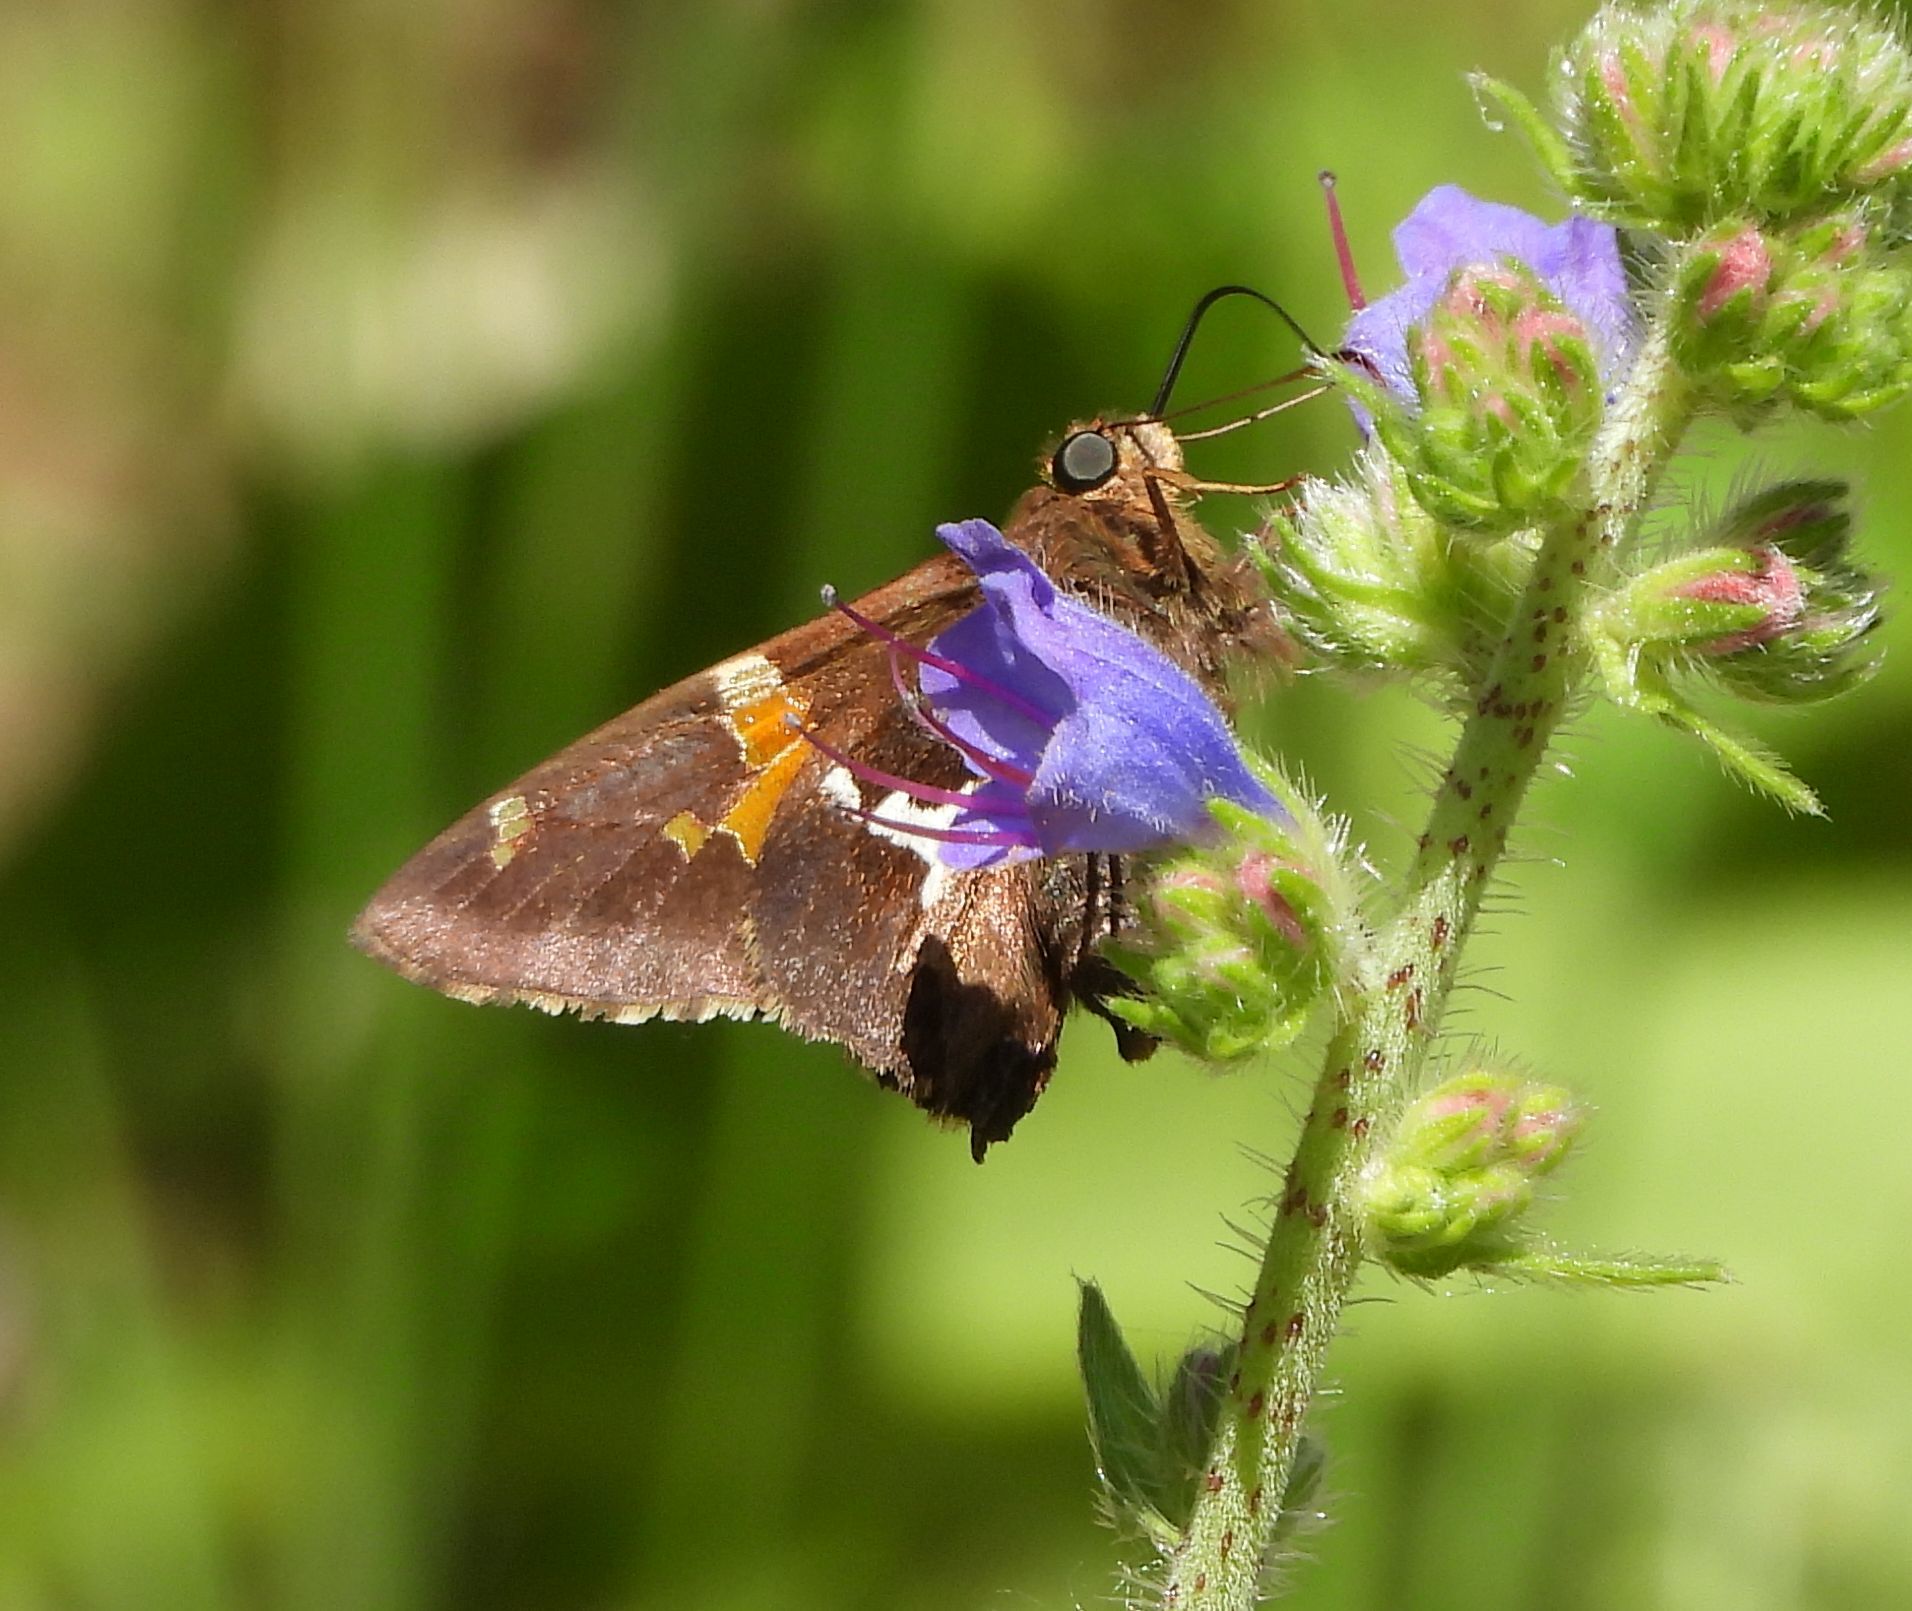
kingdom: Animalia
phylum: Arthropoda
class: Insecta
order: Lepidoptera
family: Hesperiidae
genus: Epargyreus
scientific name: Epargyreus clarus
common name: Silver-spotted skipper
